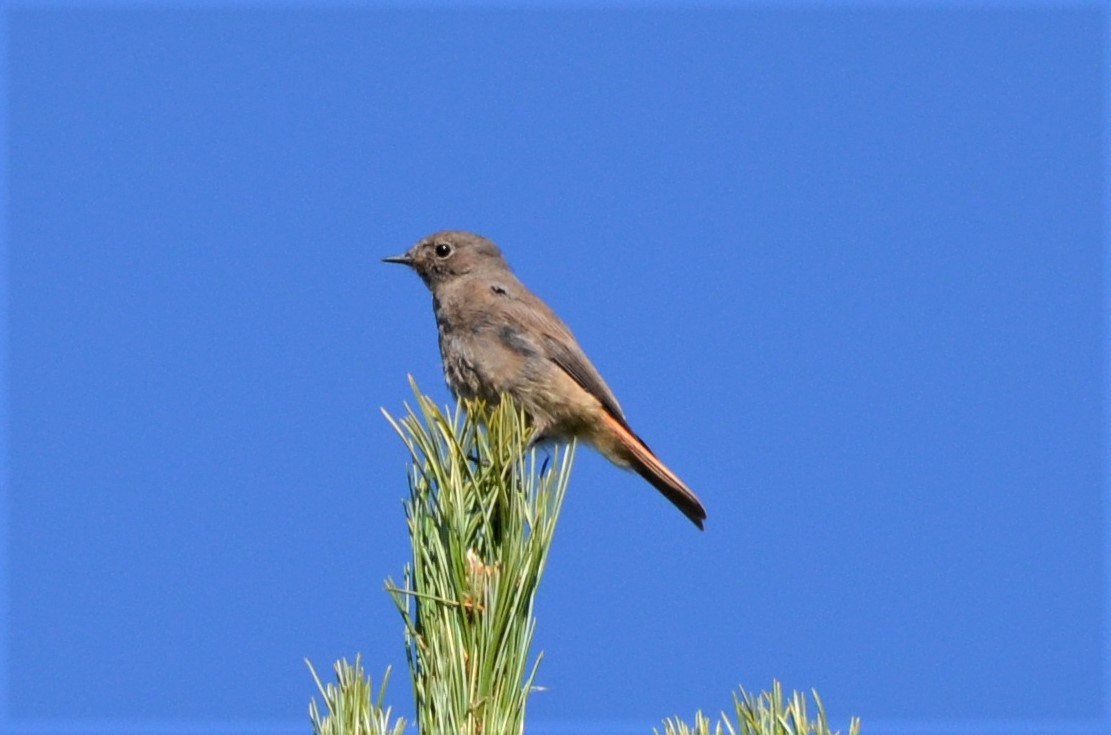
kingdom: Animalia
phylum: Chordata
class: Aves
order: Passeriformes
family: Muscicapidae
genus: Phoenicurus
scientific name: Phoenicurus ochruros
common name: Black redstart
